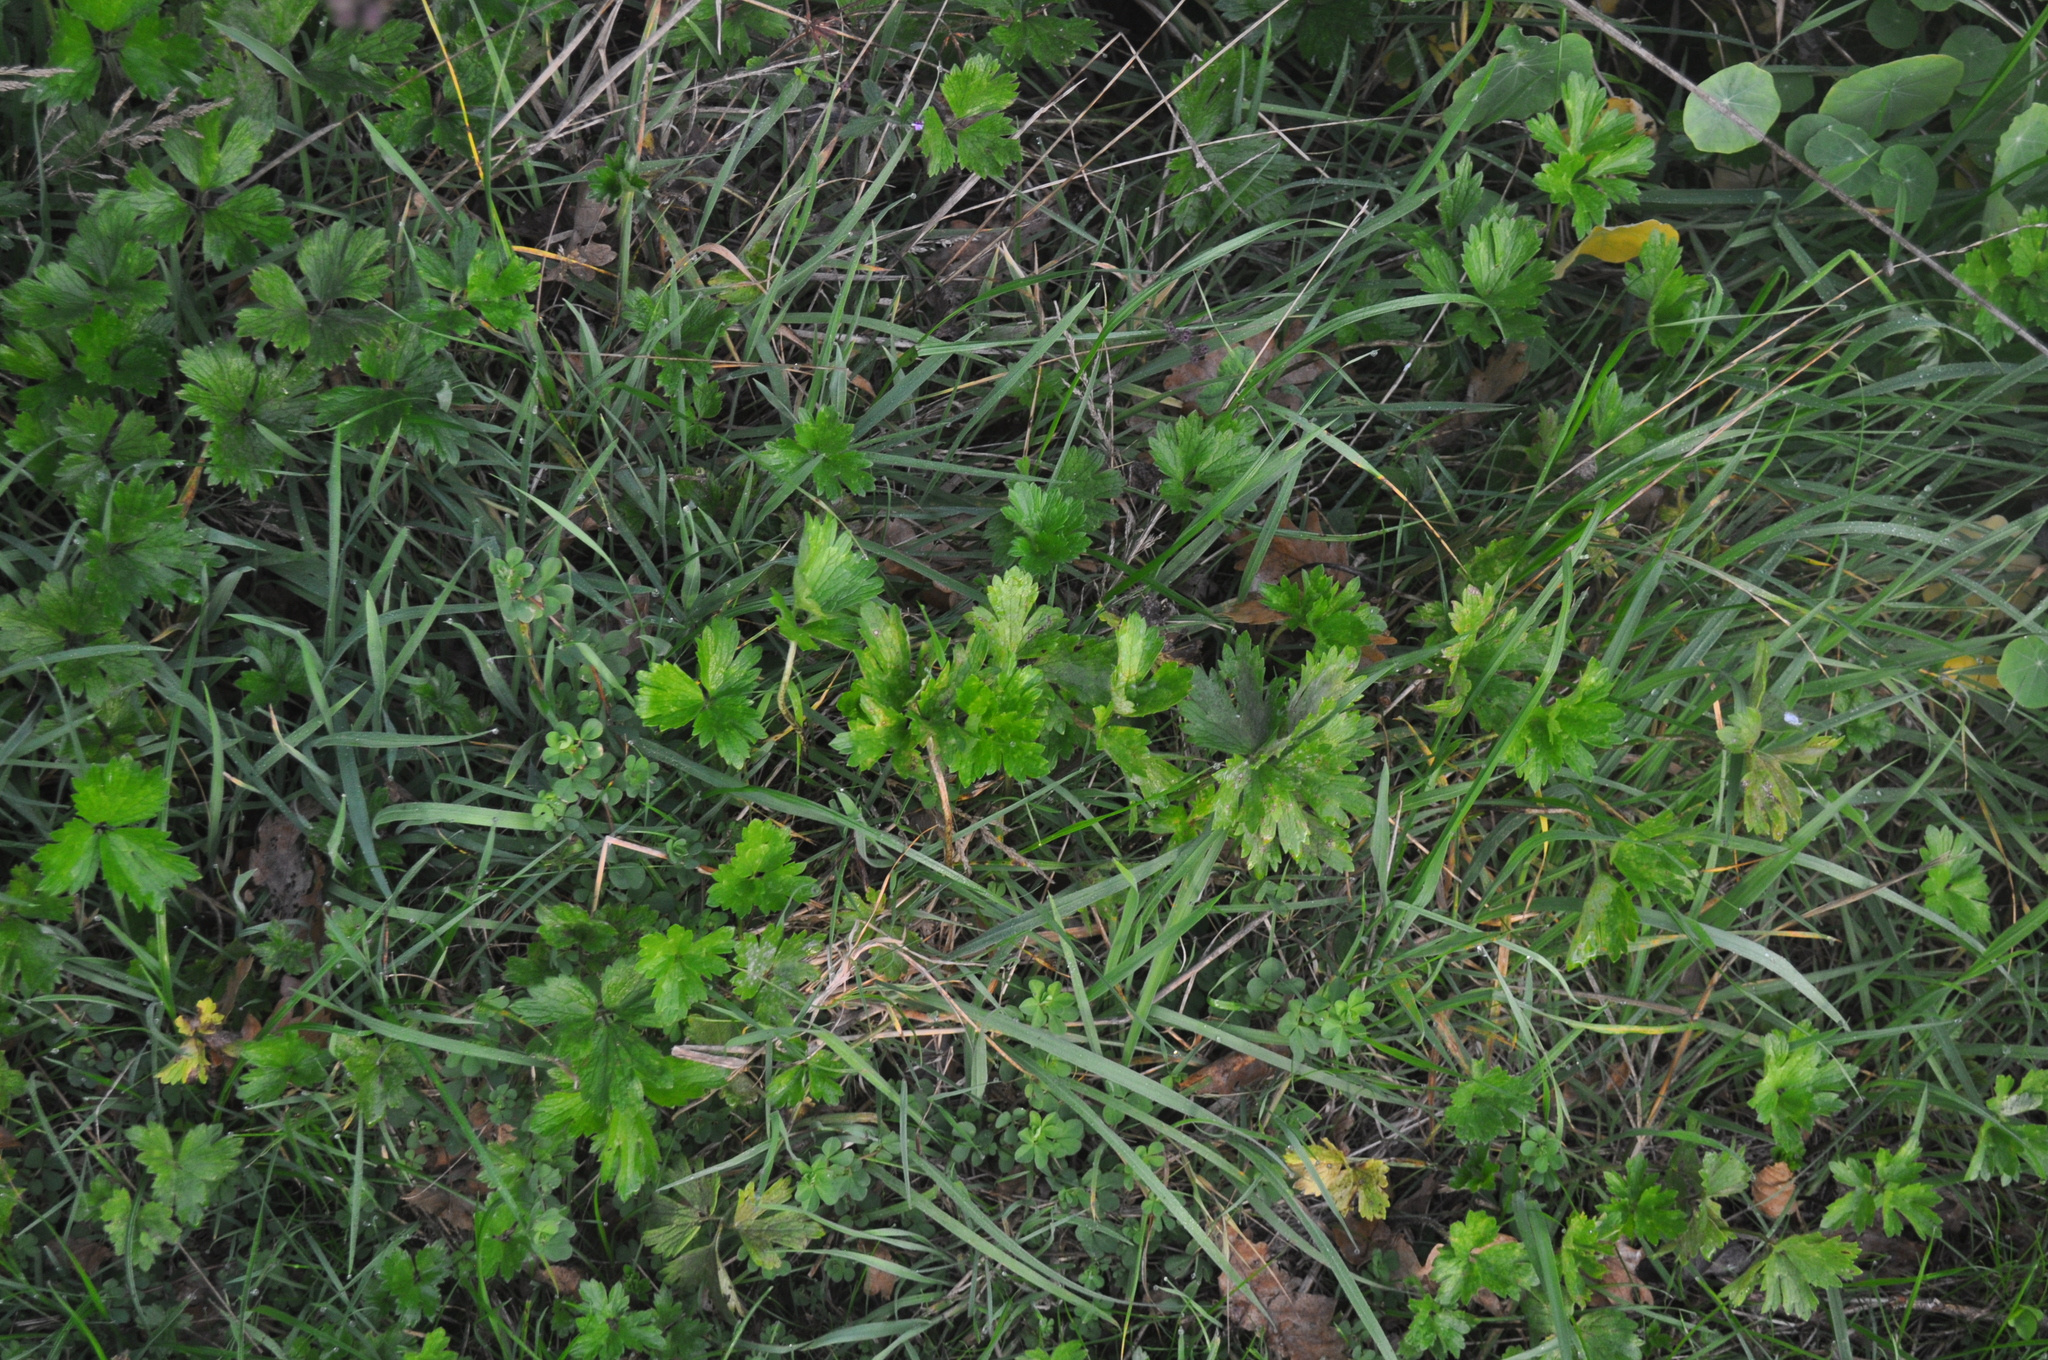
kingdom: Plantae
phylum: Tracheophyta
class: Magnoliopsida
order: Ranunculales
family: Ranunculaceae
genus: Ranunculus
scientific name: Ranunculus repens
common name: Creeping buttercup
